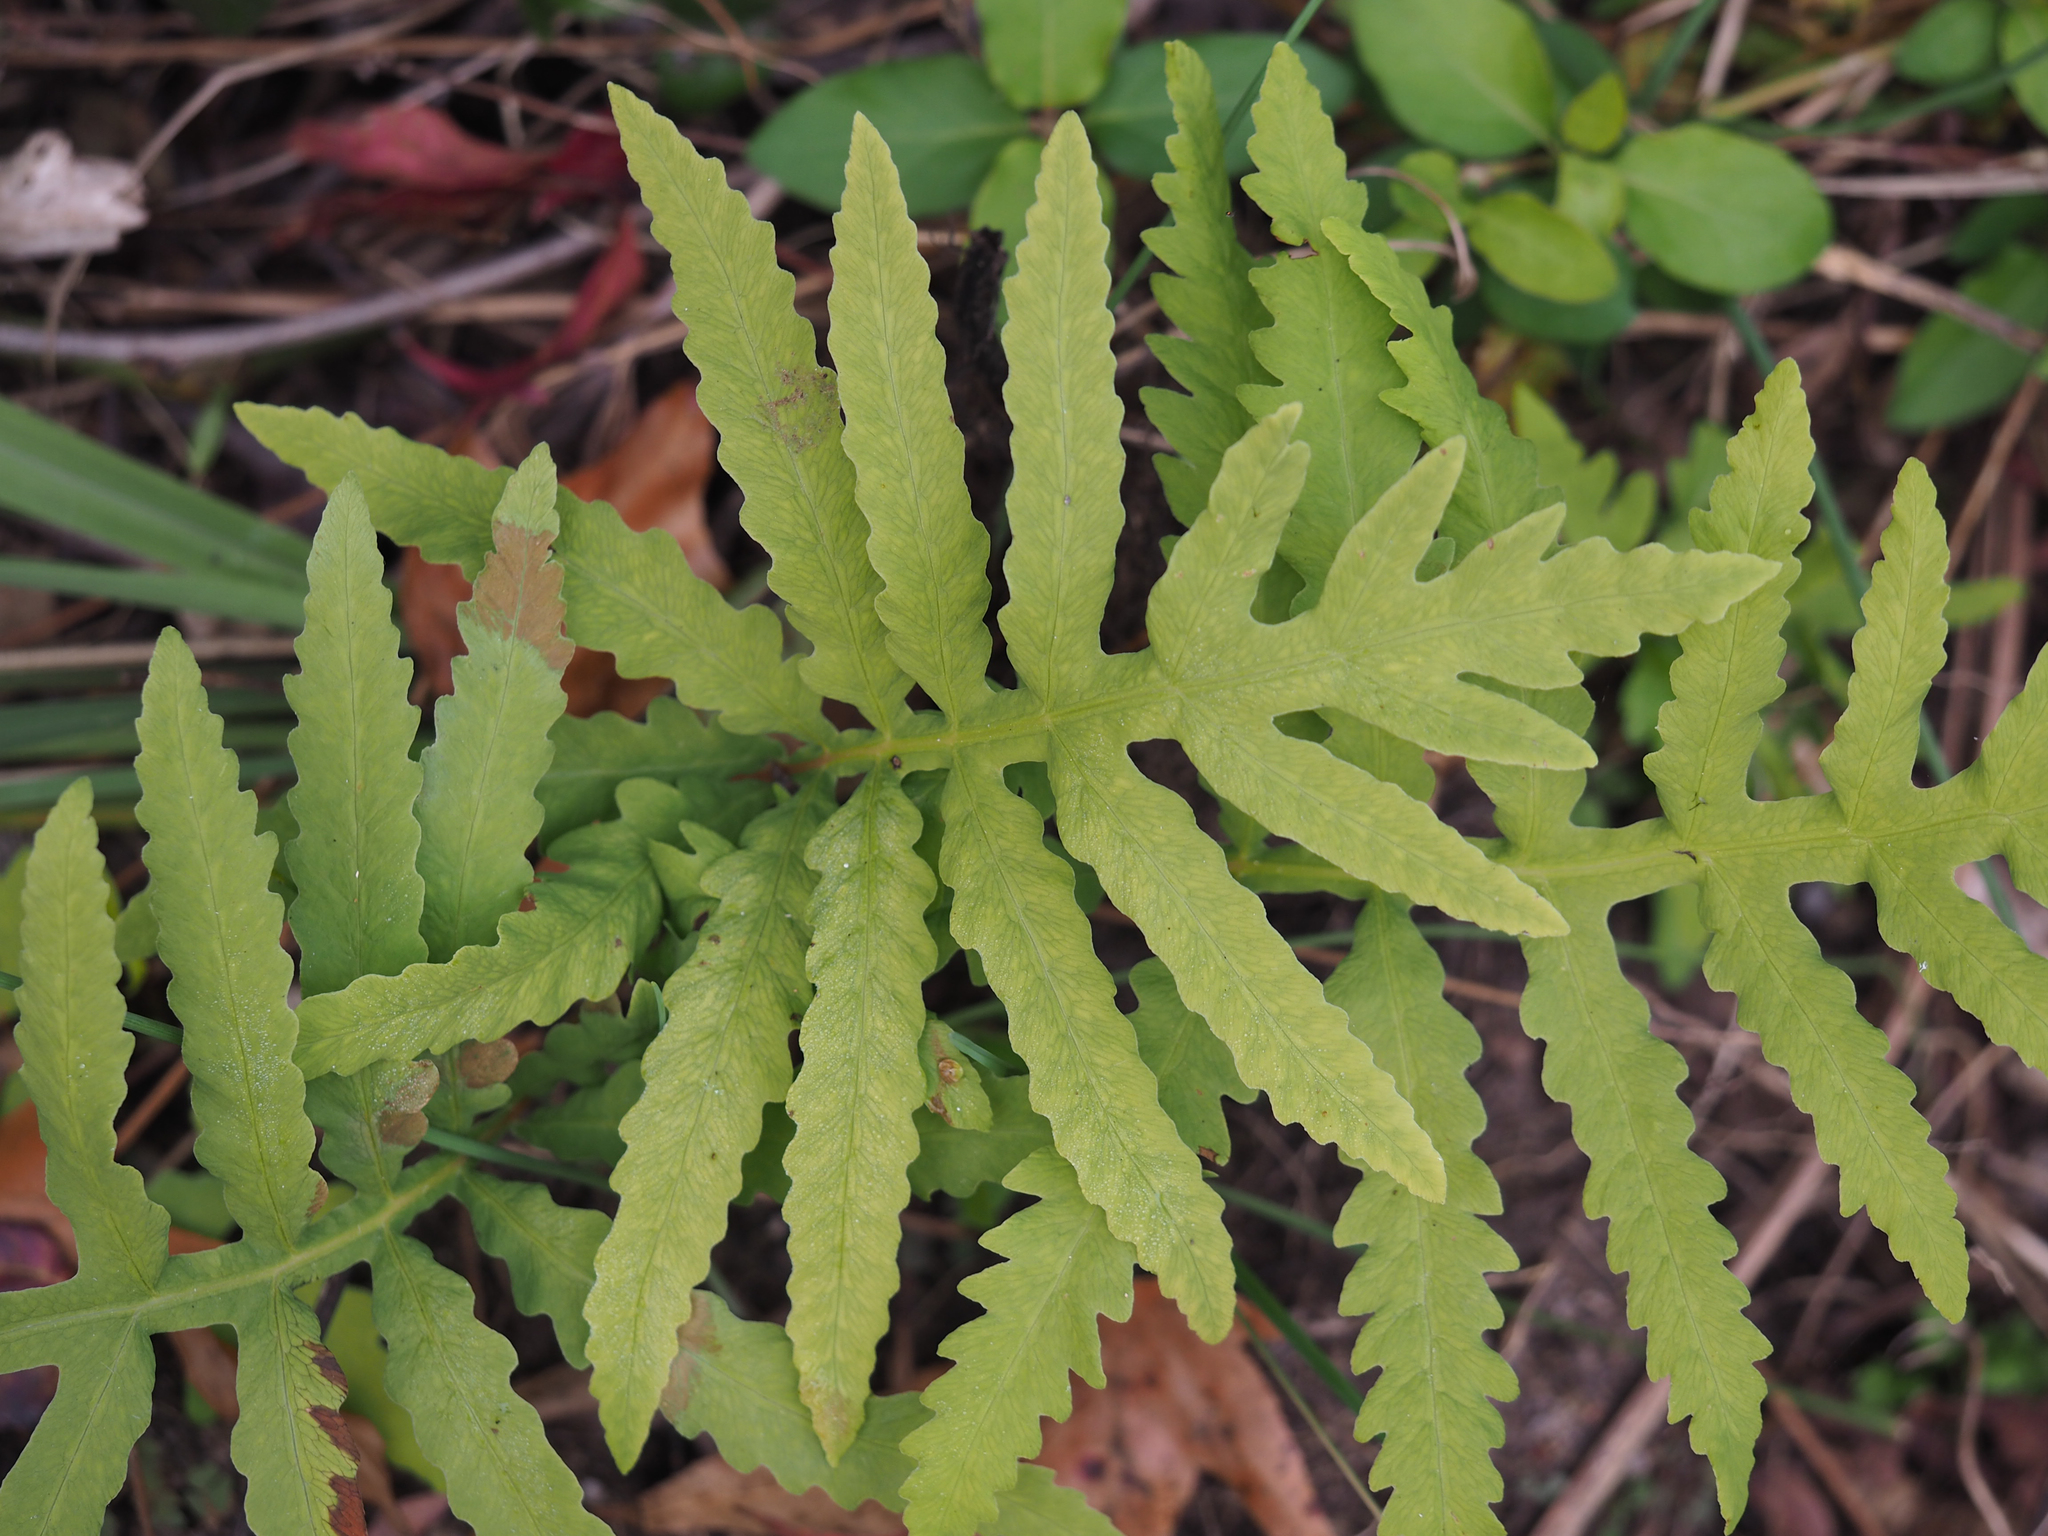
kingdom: Plantae
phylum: Tracheophyta
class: Polypodiopsida
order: Polypodiales
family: Onocleaceae
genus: Onoclea
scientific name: Onoclea sensibilis
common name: Sensitive fern
